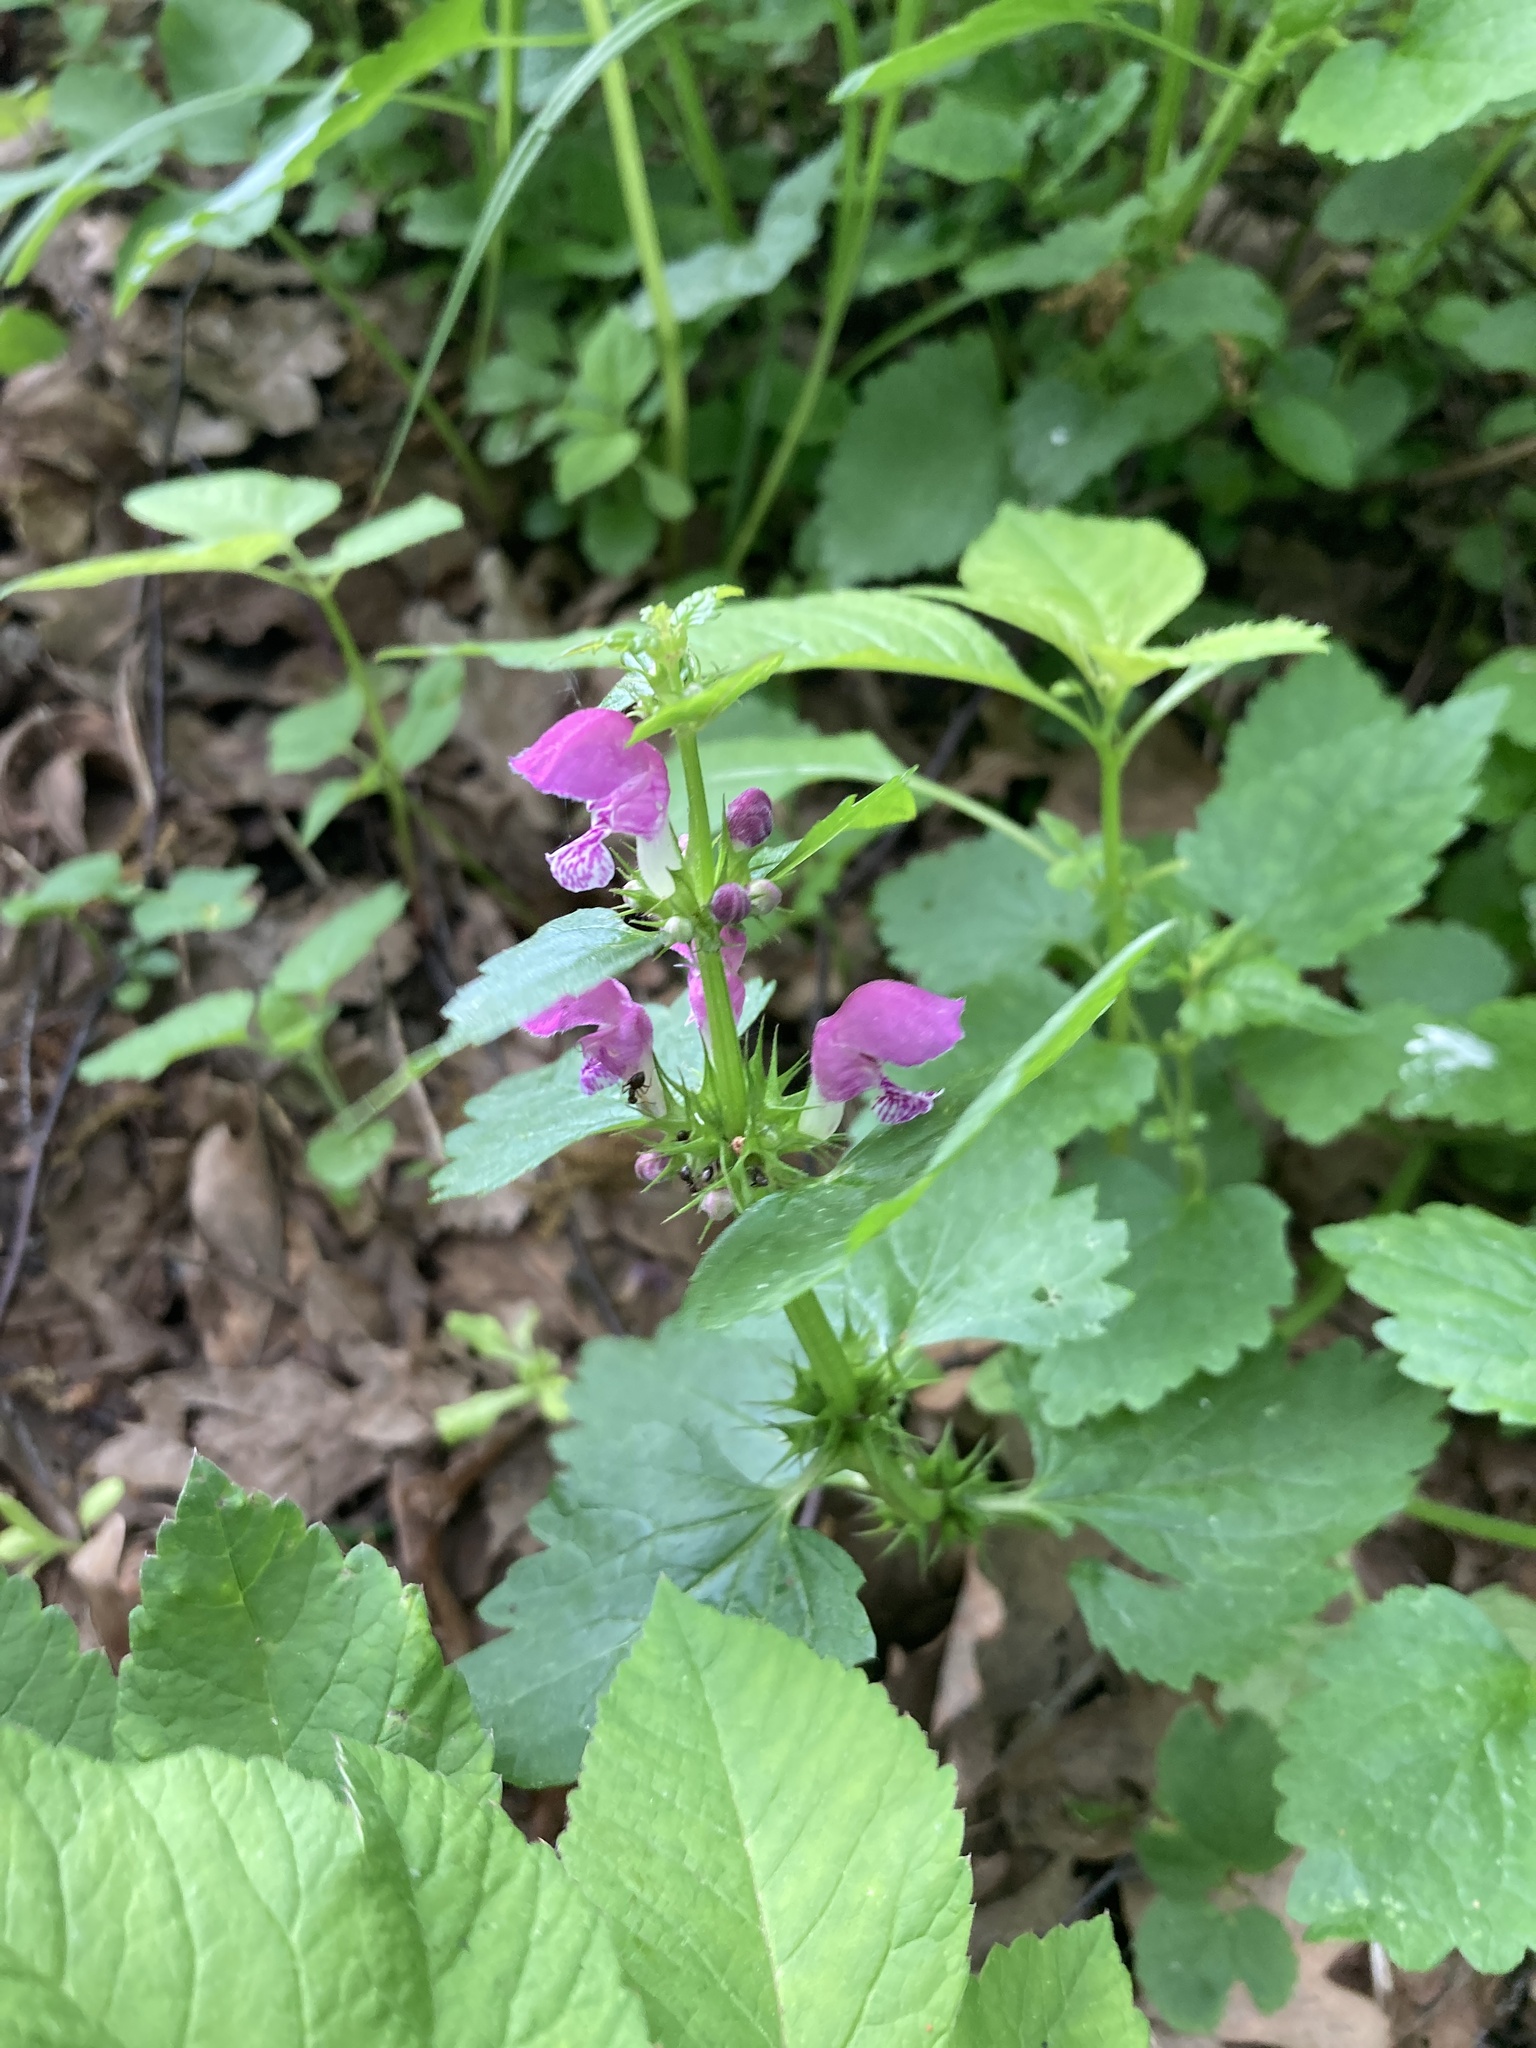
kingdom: Plantae
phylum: Tracheophyta
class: Magnoliopsida
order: Lamiales
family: Lamiaceae
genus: Lamium
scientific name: Lamium maculatum
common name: Spotted dead-nettle
